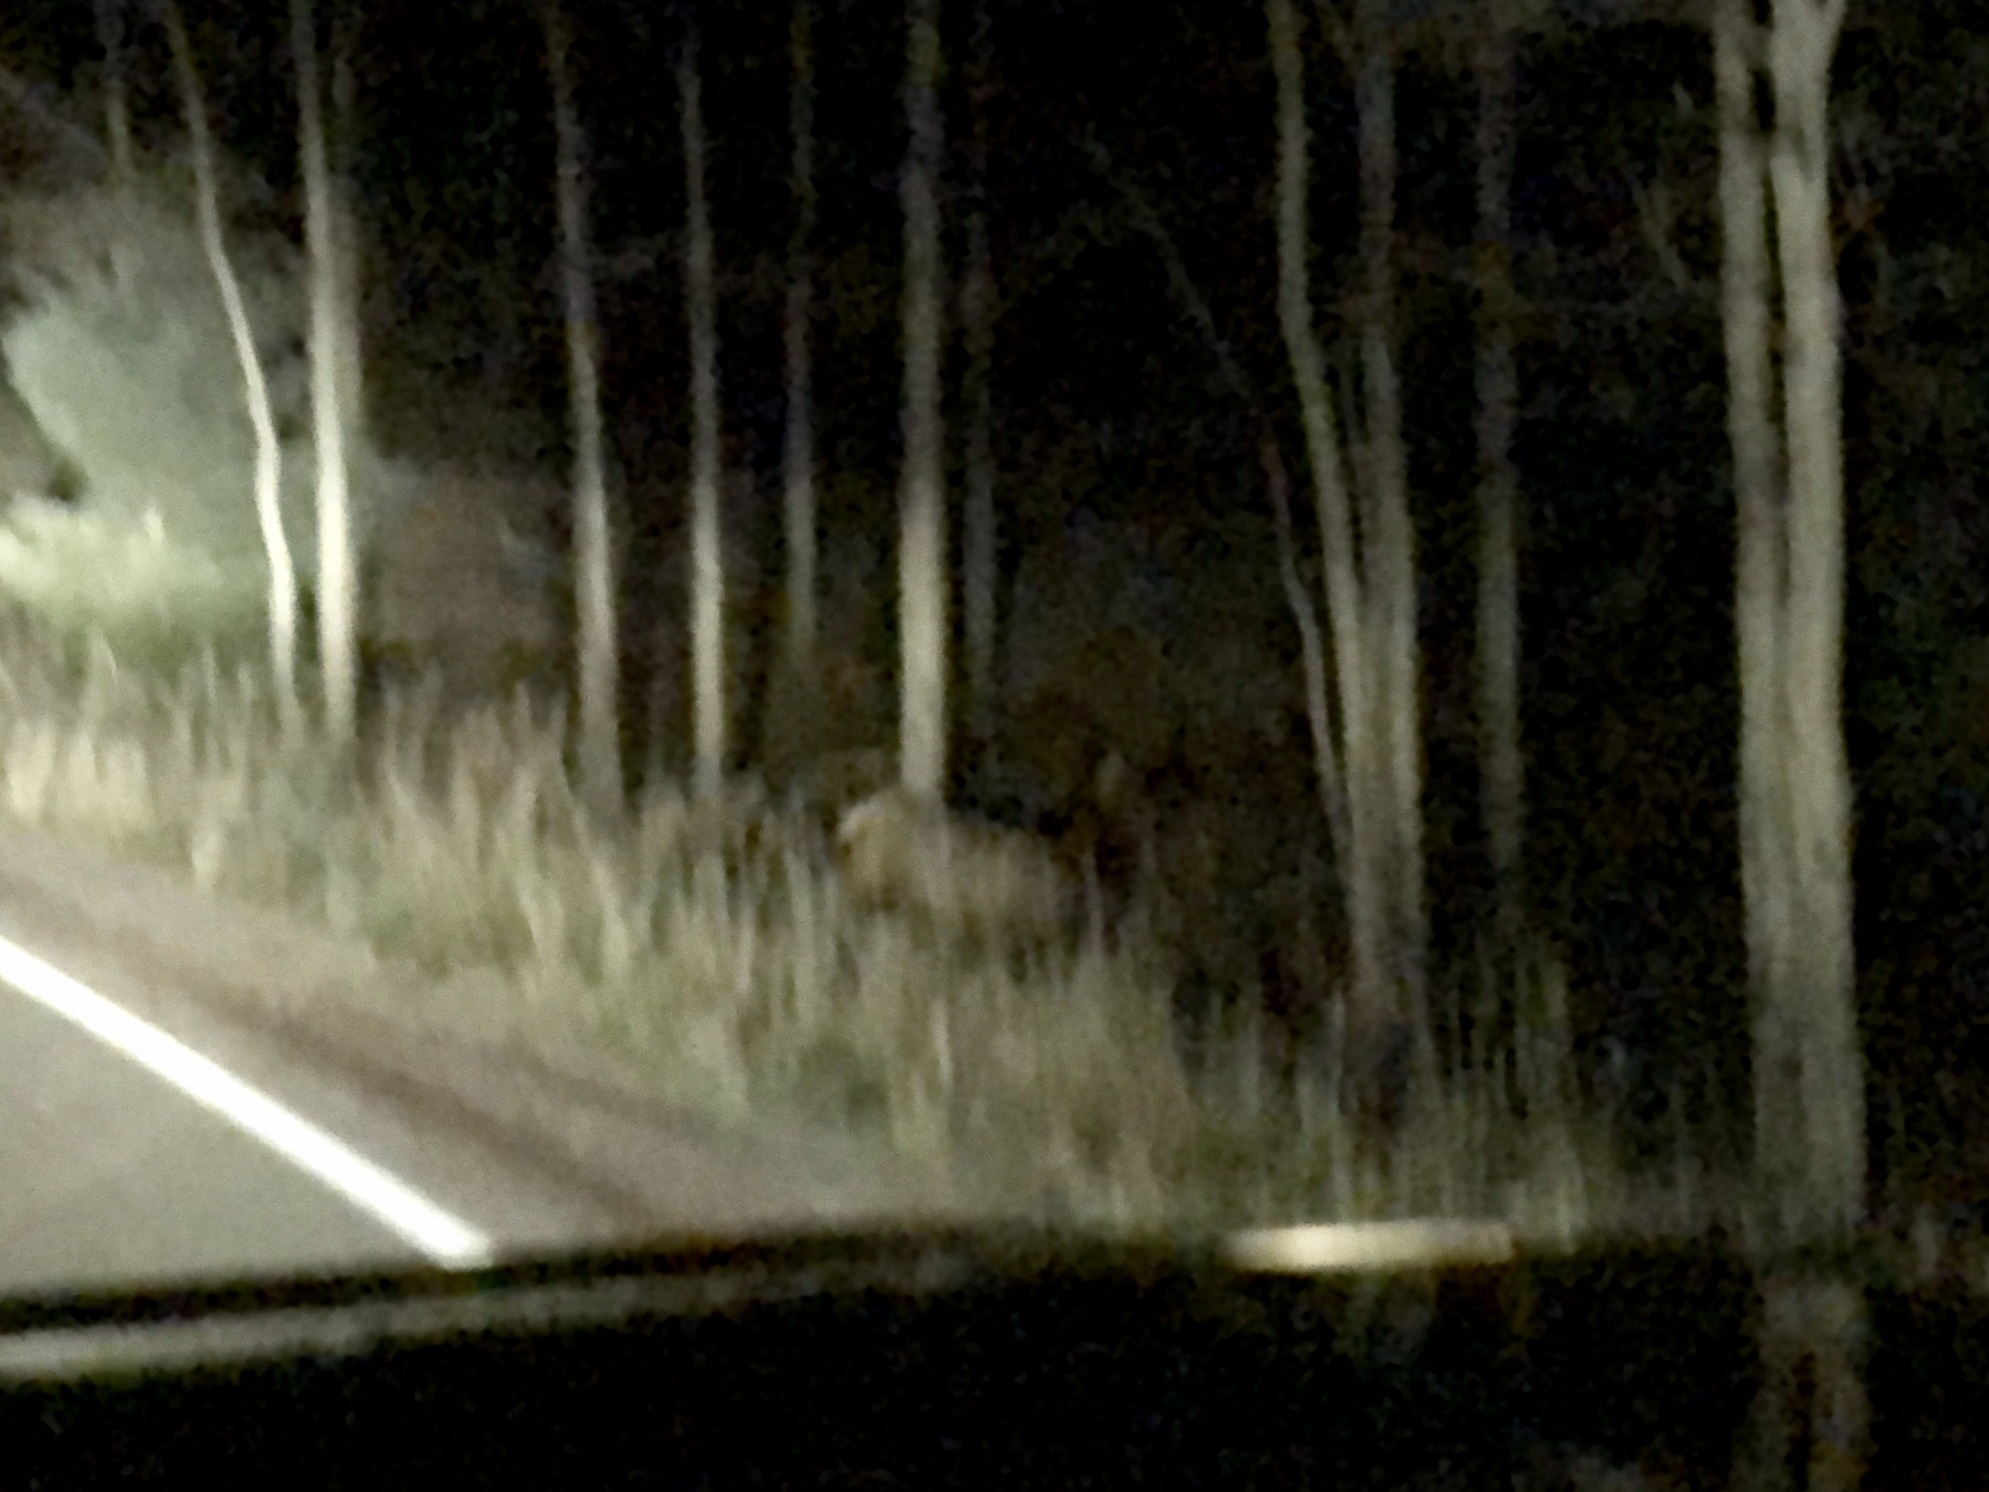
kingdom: Animalia
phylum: Chordata
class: Mammalia
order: Artiodactyla
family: Cervidae
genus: Cervus
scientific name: Cervus elaphus
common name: Red deer
